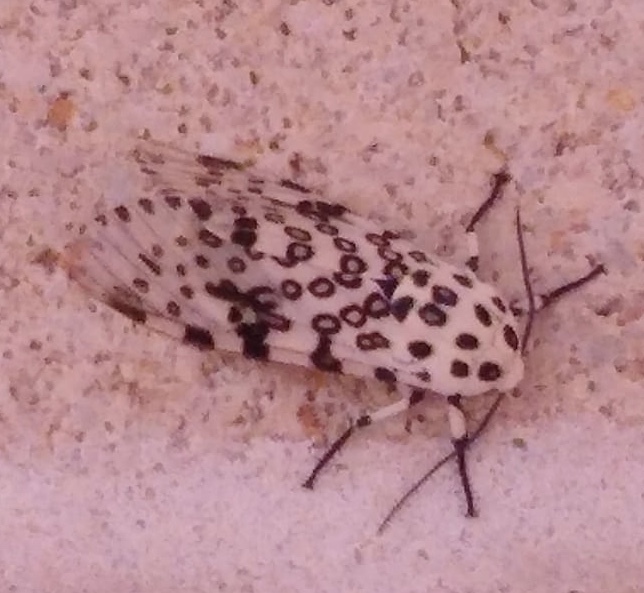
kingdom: Animalia
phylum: Arthropoda
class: Insecta
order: Lepidoptera
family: Erebidae
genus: Hypercompe
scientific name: Hypercompe scribonia
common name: Giant leopard moth
